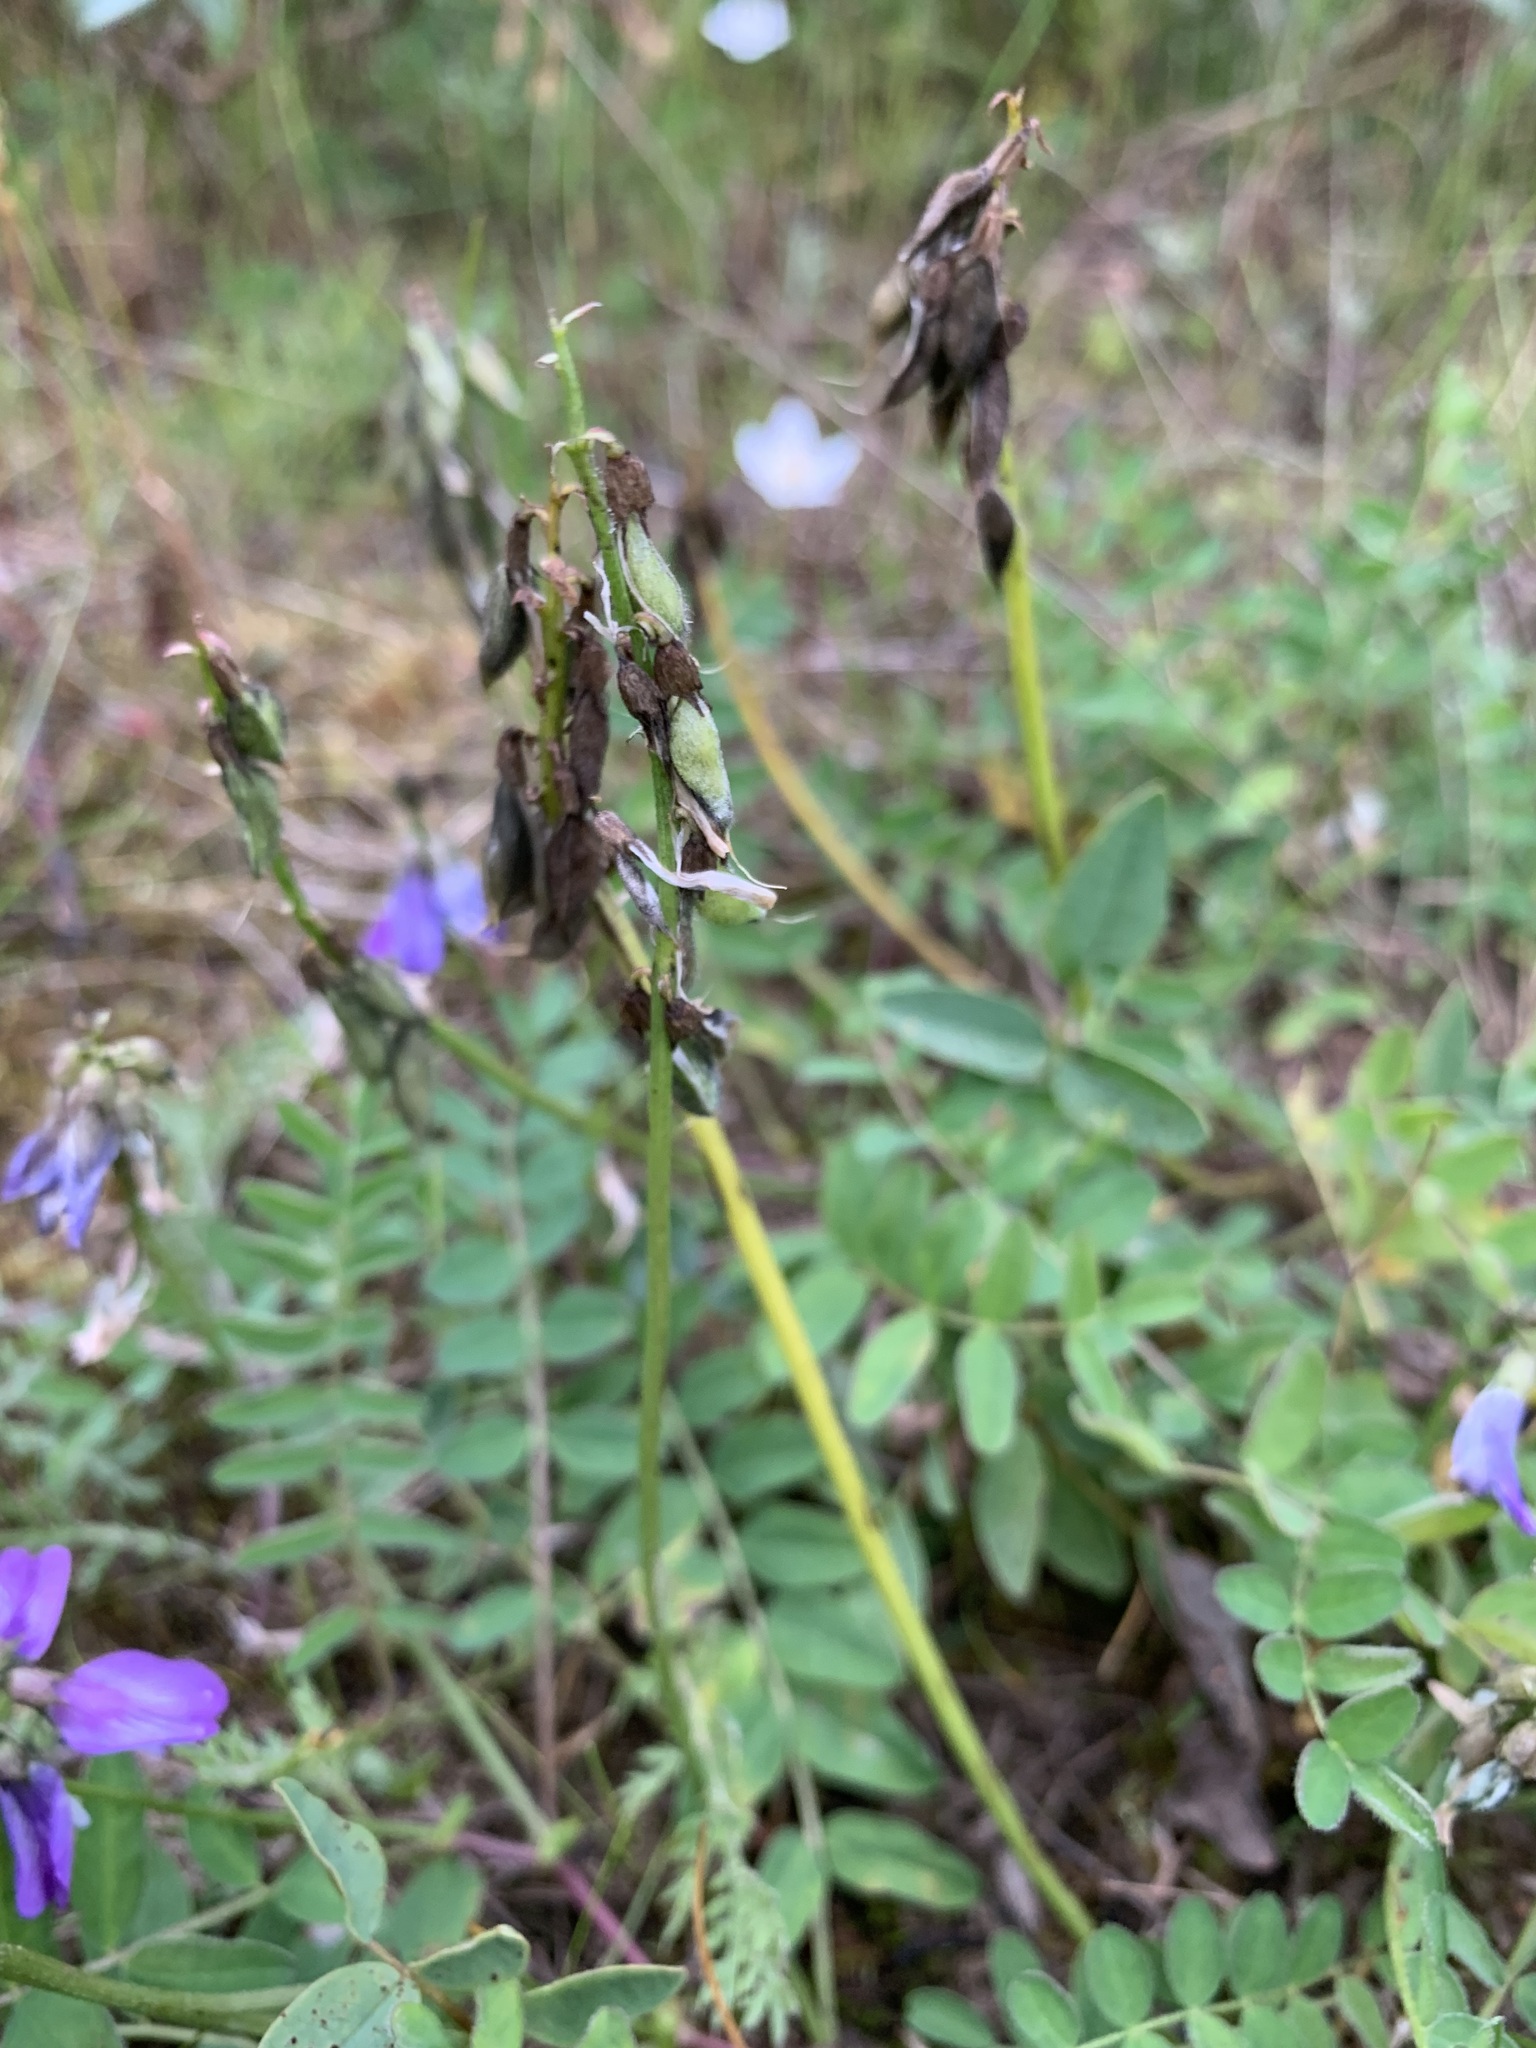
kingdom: Plantae
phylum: Tracheophyta
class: Magnoliopsida
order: Fabales
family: Fabaceae
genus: Astragalus
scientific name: Astragalus alpinus
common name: Alpine milk-vetch
